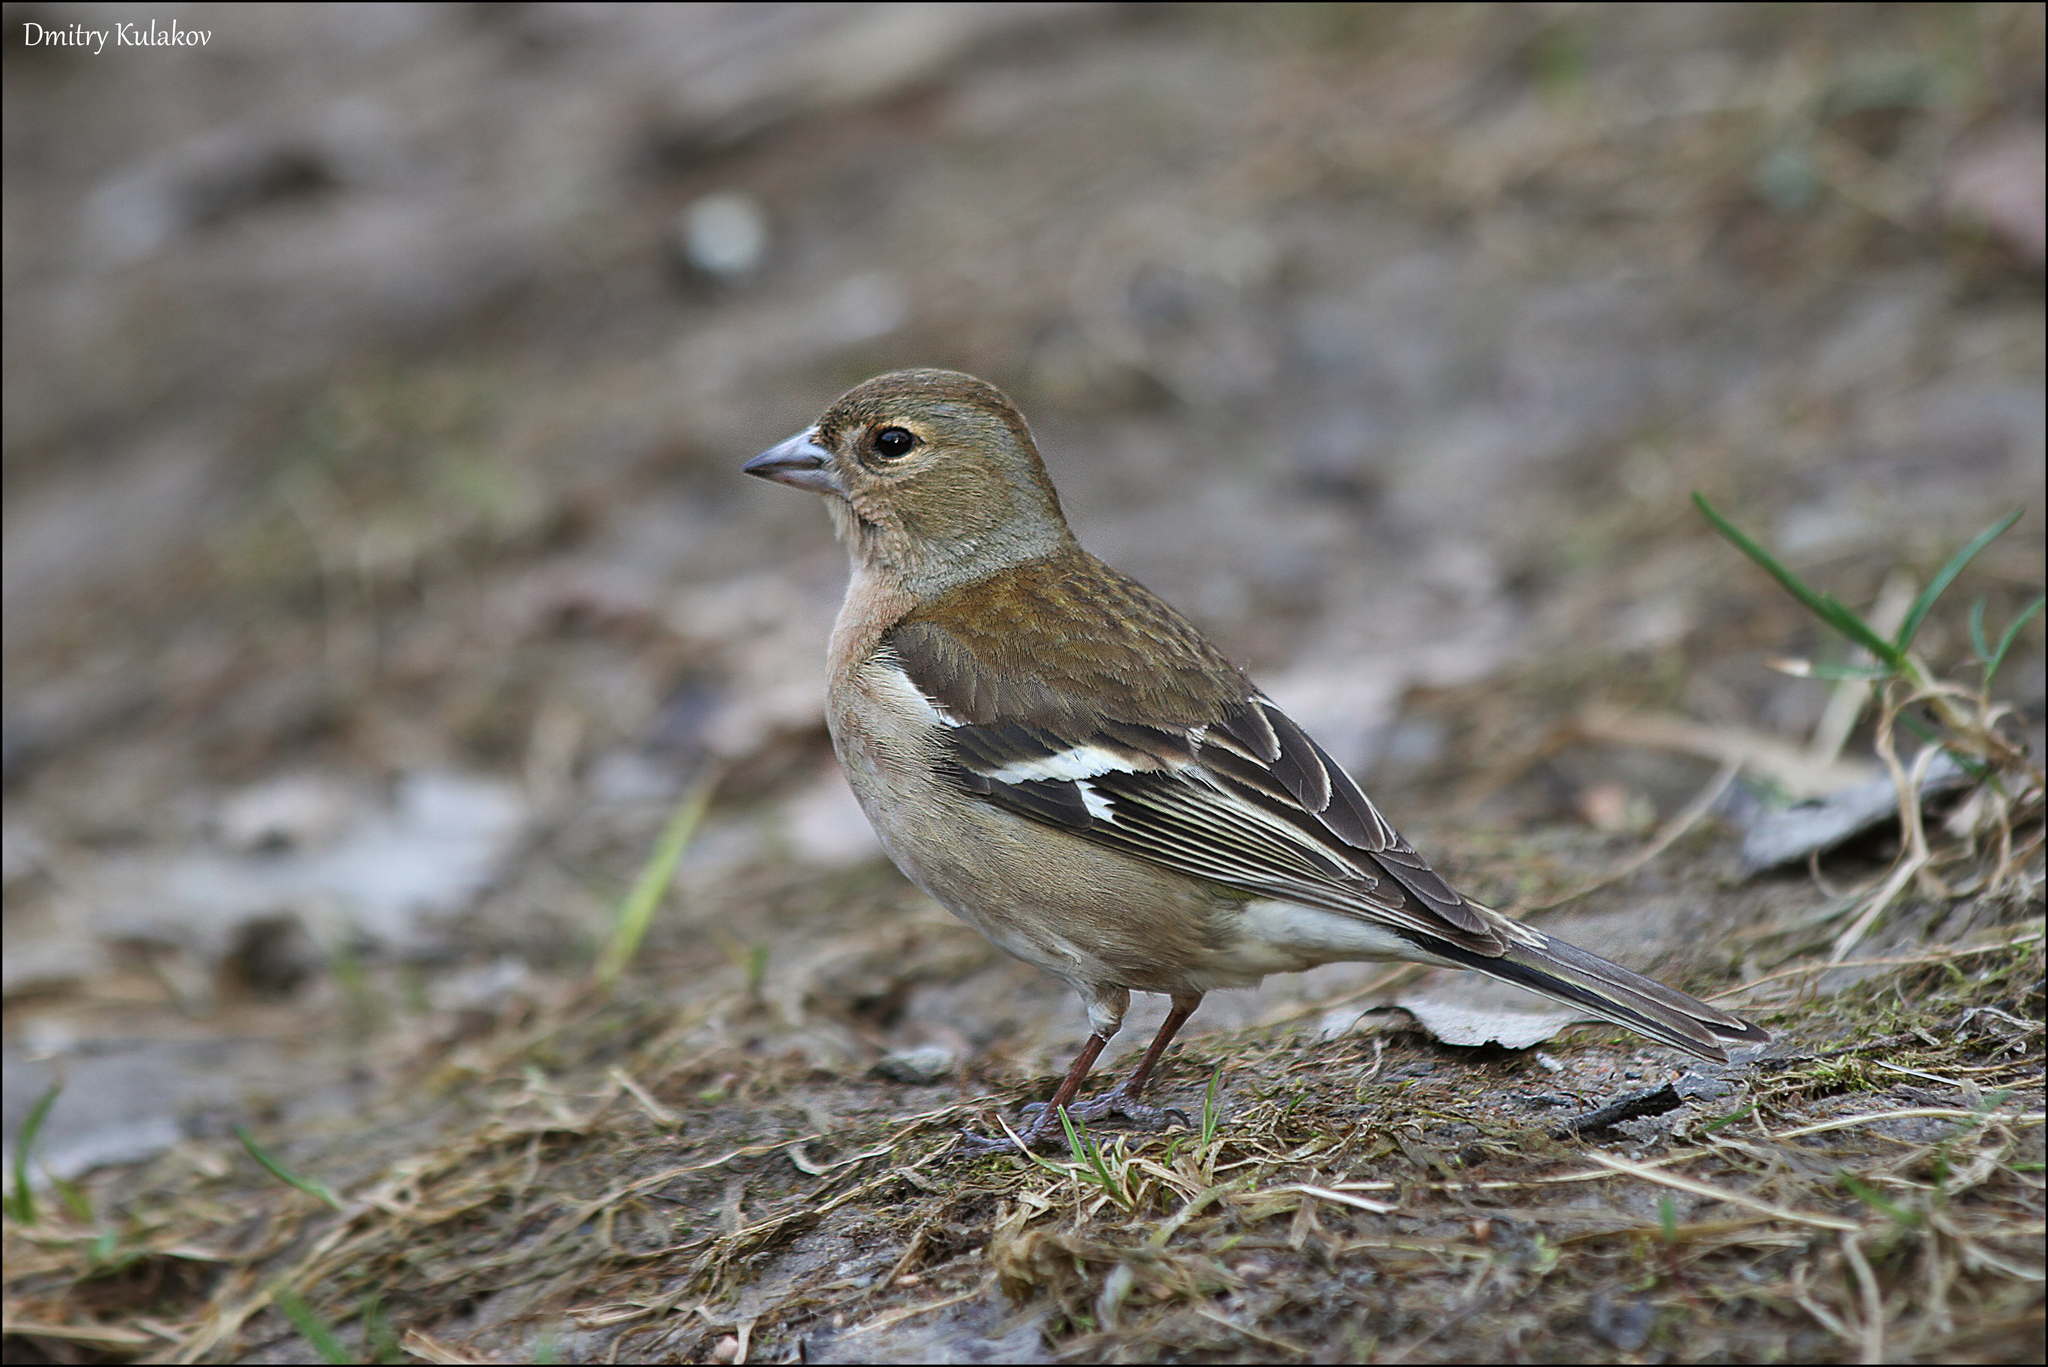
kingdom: Animalia
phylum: Chordata
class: Aves
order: Passeriformes
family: Fringillidae
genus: Fringilla
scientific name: Fringilla coelebs
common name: Common chaffinch
